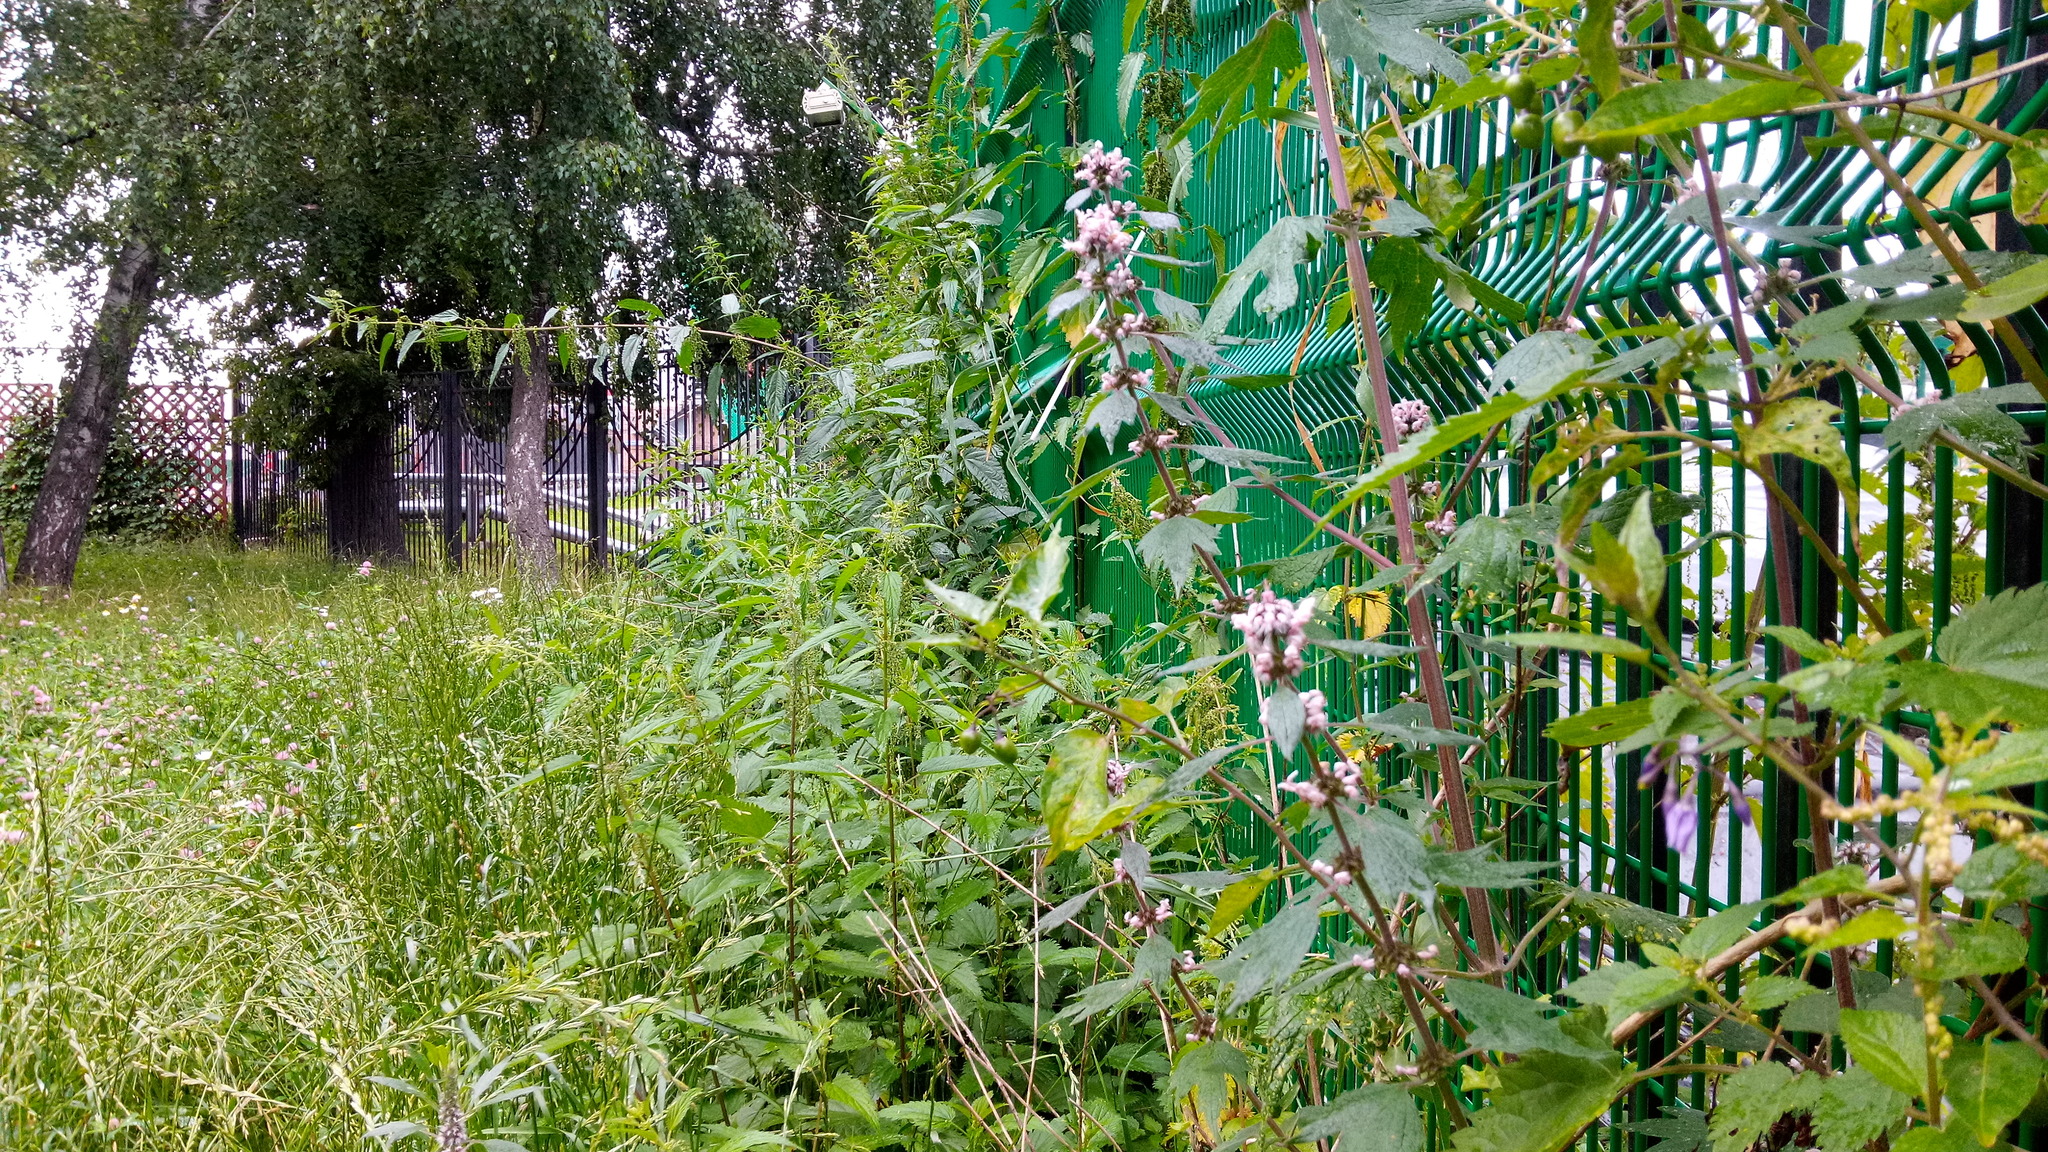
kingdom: Plantae
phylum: Tracheophyta
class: Magnoliopsida
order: Lamiales
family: Lamiaceae
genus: Leonurus
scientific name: Leonurus quinquelobatus
